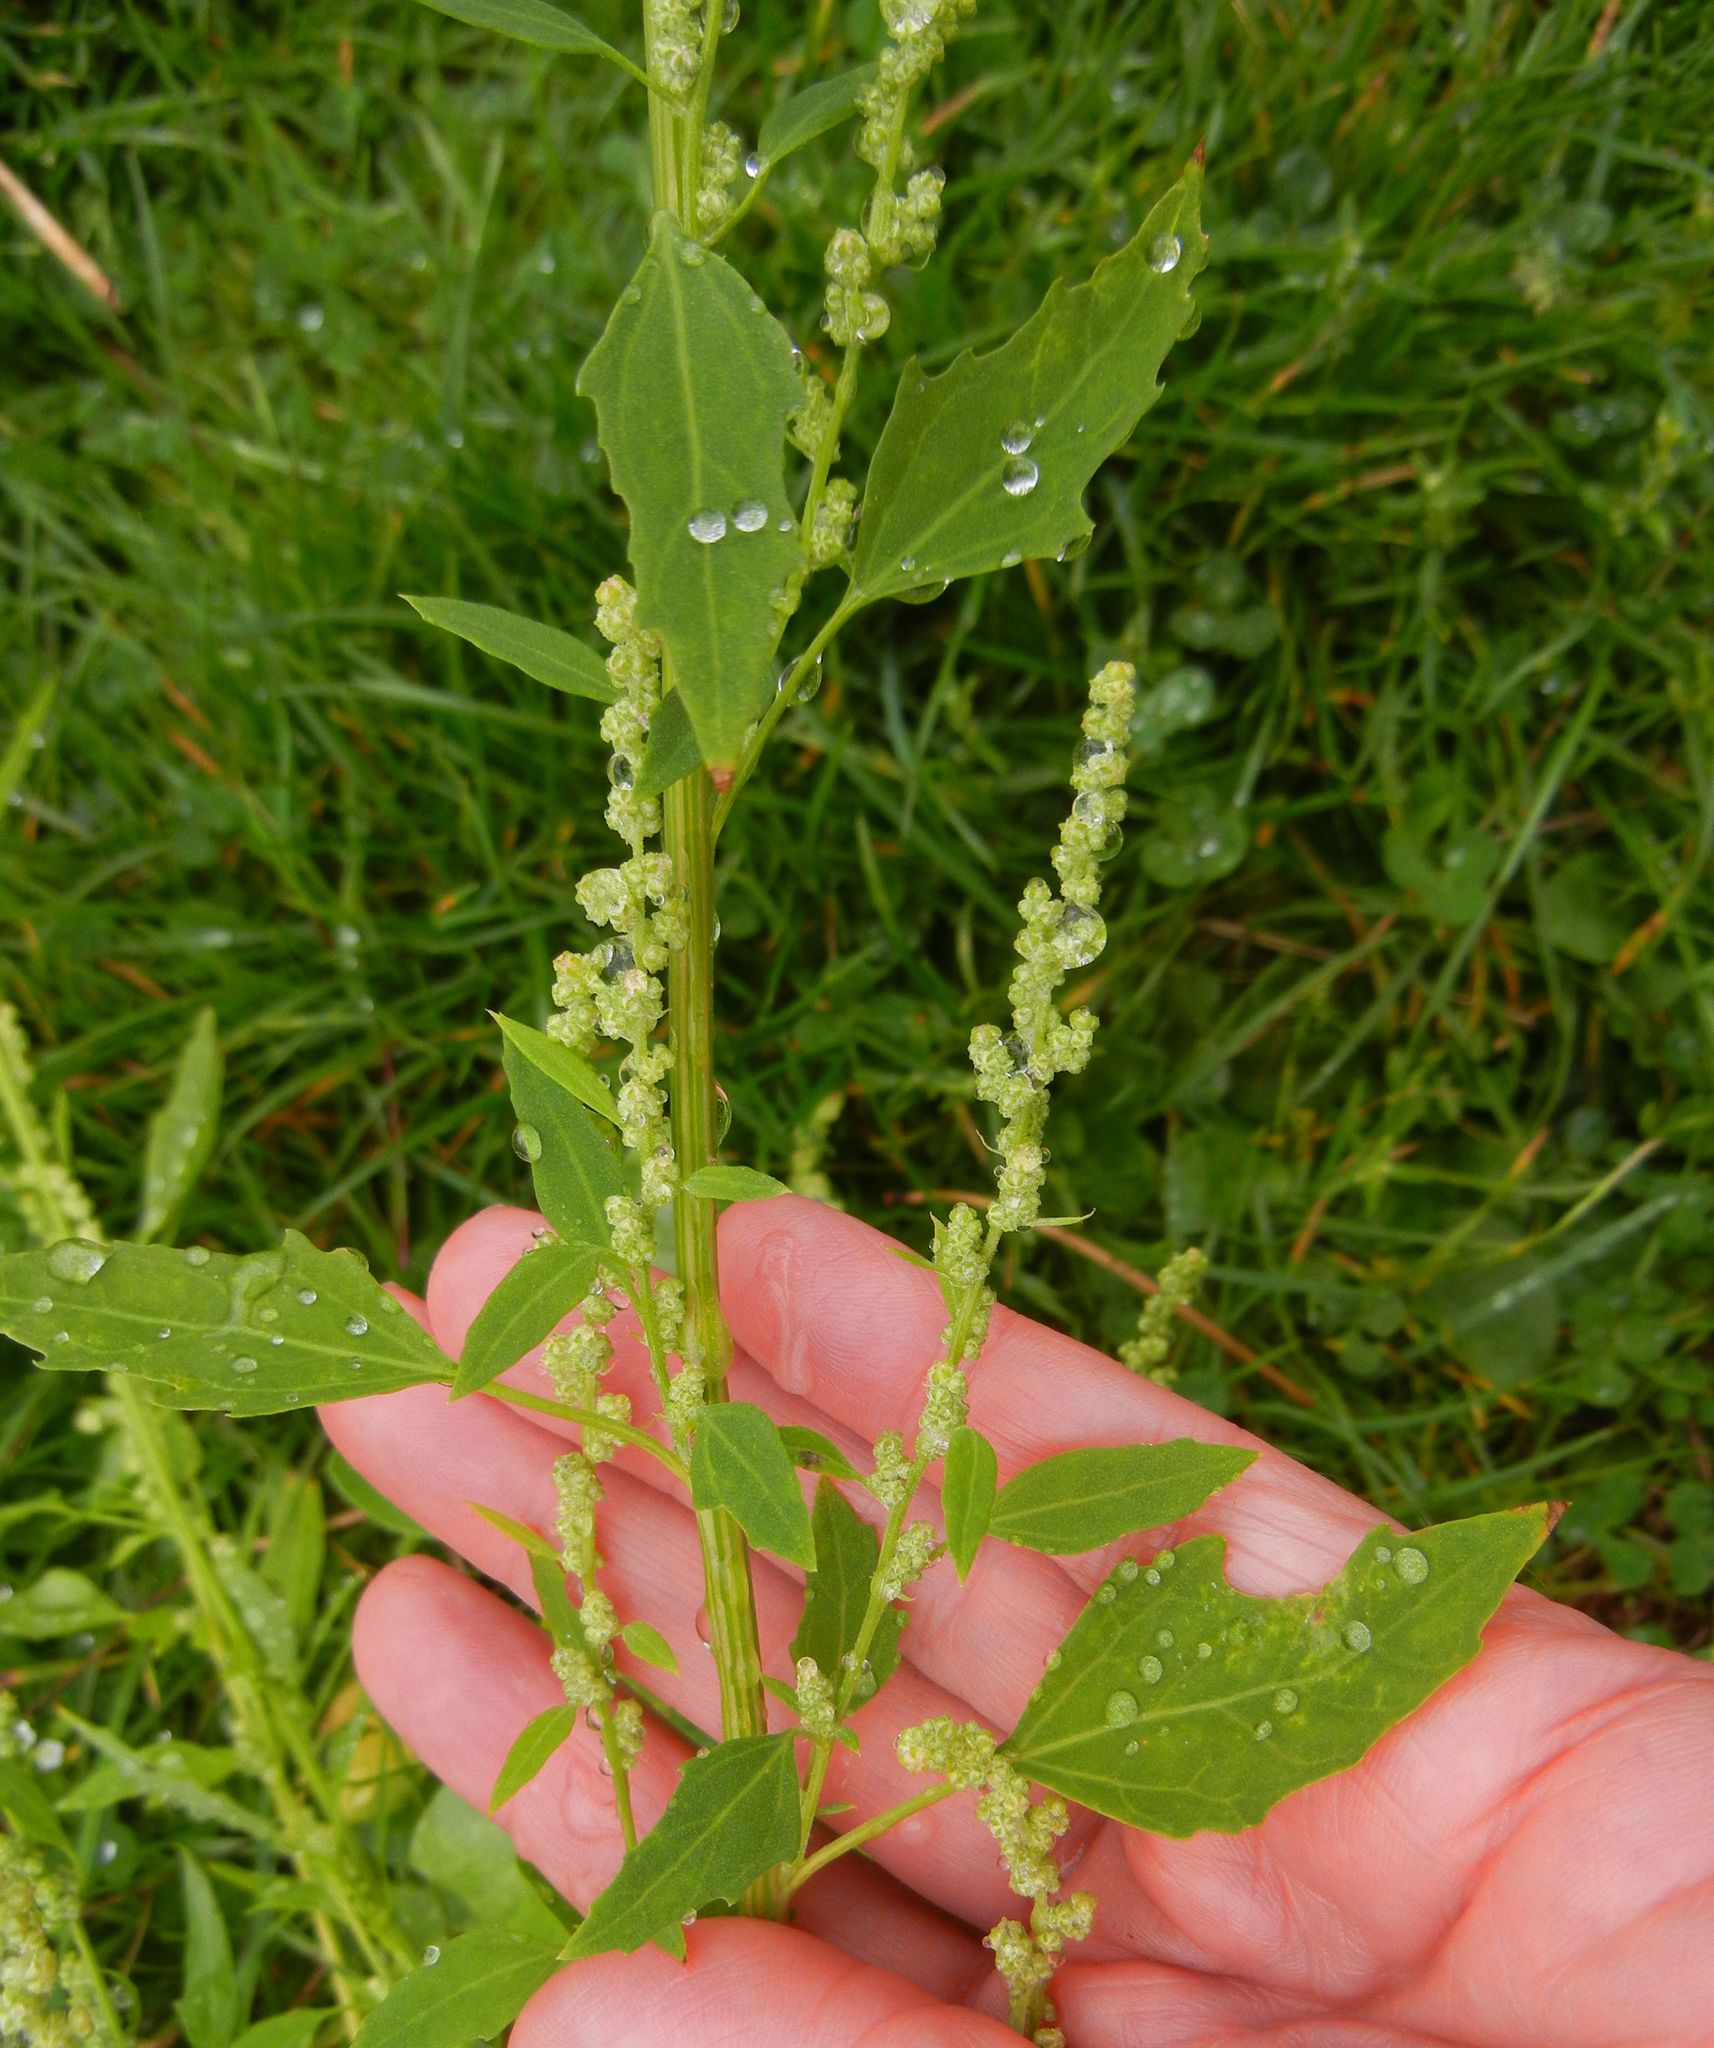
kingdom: Plantae
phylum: Tracheophyta
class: Magnoliopsida
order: Caryophyllales
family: Amaranthaceae
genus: Chenopodium
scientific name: Chenopodium album
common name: Fat-hen
